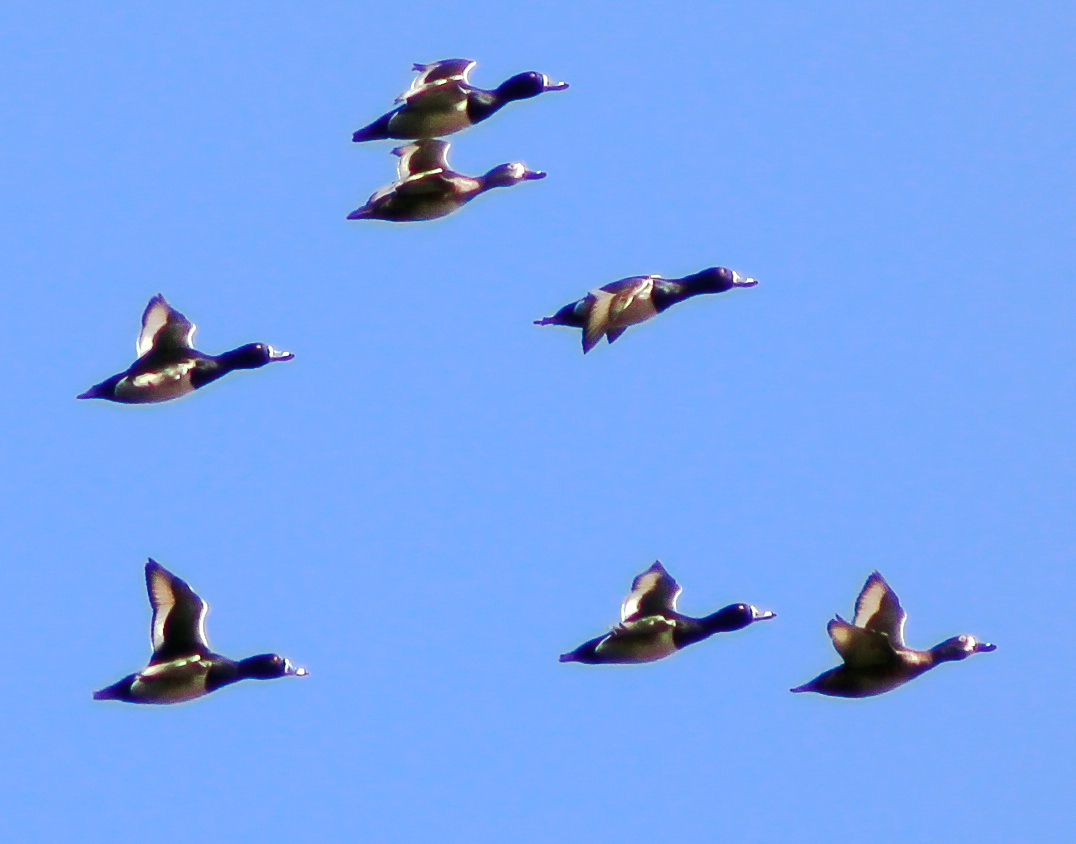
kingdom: Animalia
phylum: Chordata
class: Aves
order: Anseriformes
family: Anatidae
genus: Aythya
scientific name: Aythya collaris
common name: Ring-necked duck
